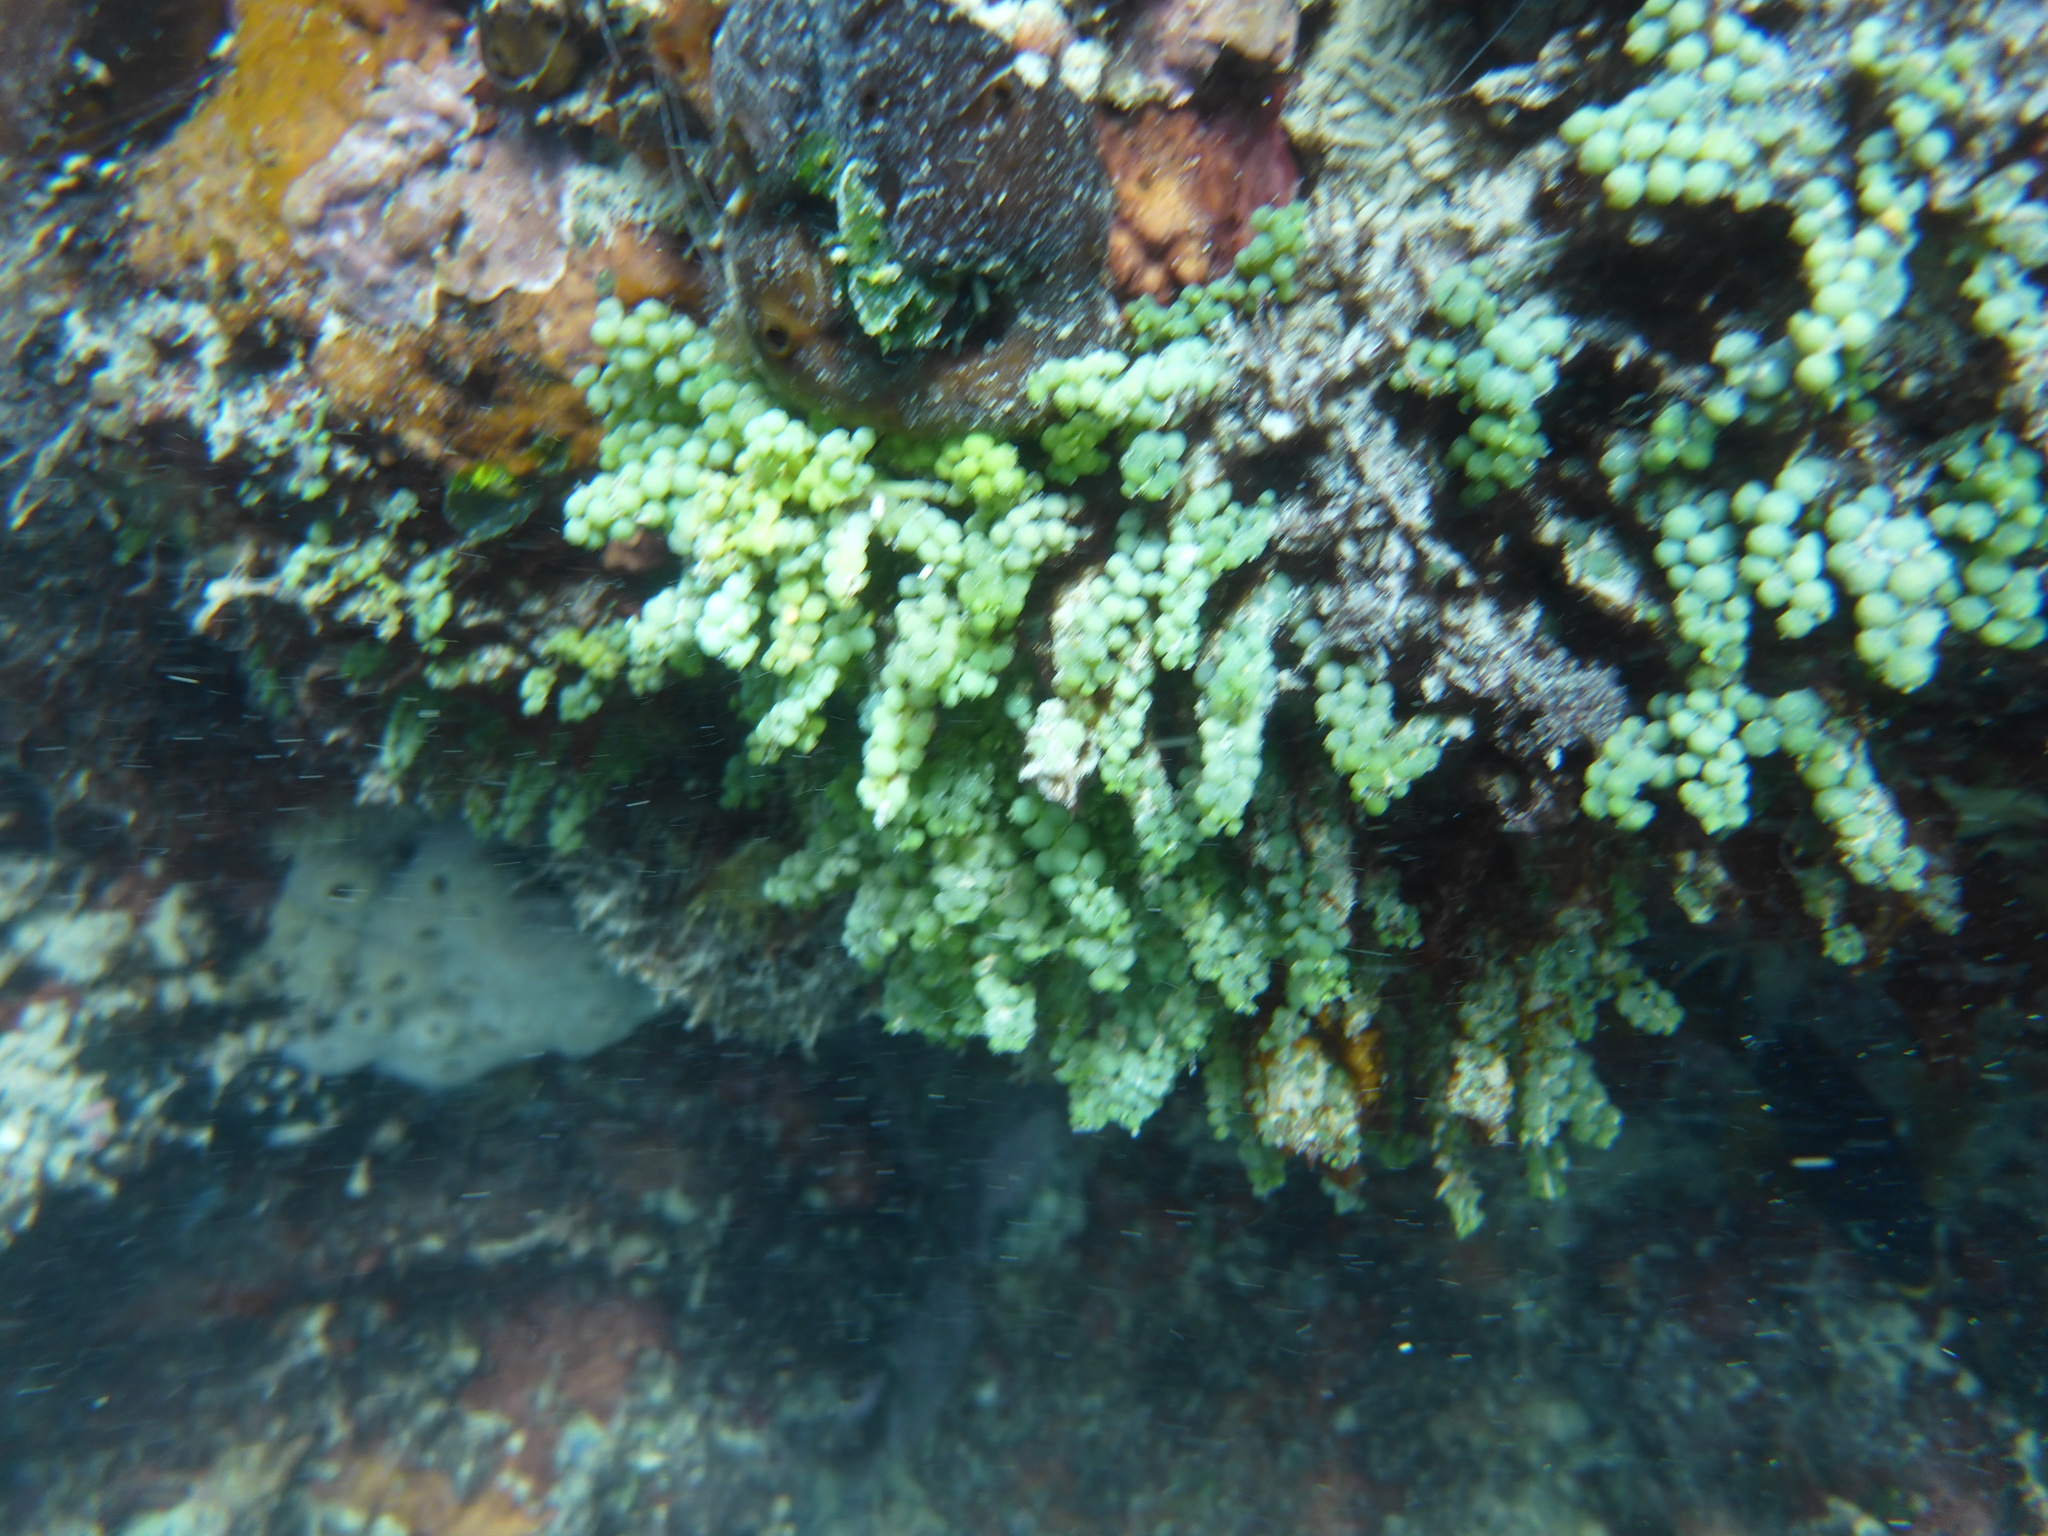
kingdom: Plantae
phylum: Chlorophyta
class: Ulvophyceae
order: Bryopsidales
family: Caulerpaceae
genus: Caulerpa
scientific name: Caulerpa racemosa
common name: Green grape algae
